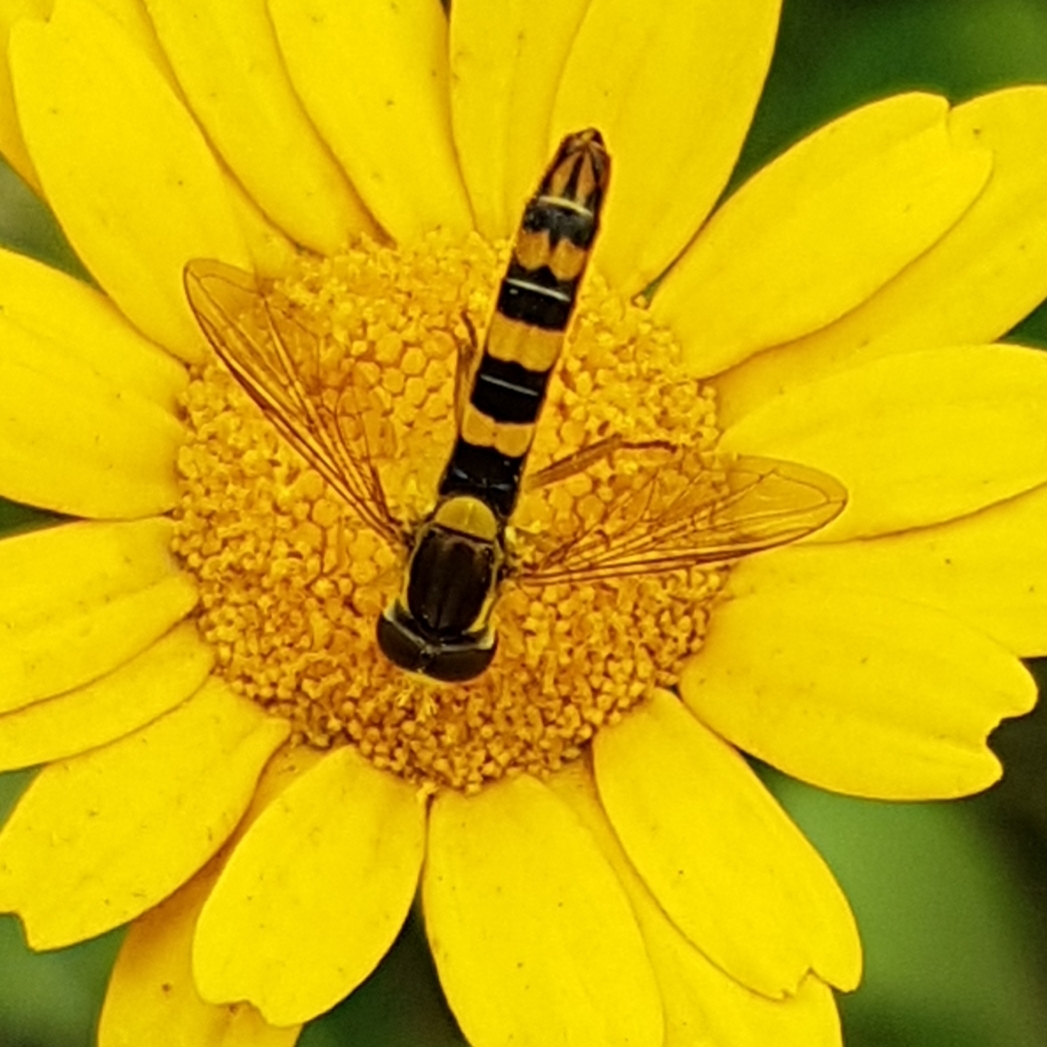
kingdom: Animalia
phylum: Arthropoda
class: Insecta
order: Diptera
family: Syrphidae
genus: Sphaerophoria
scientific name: Sphaerophoria scripta
